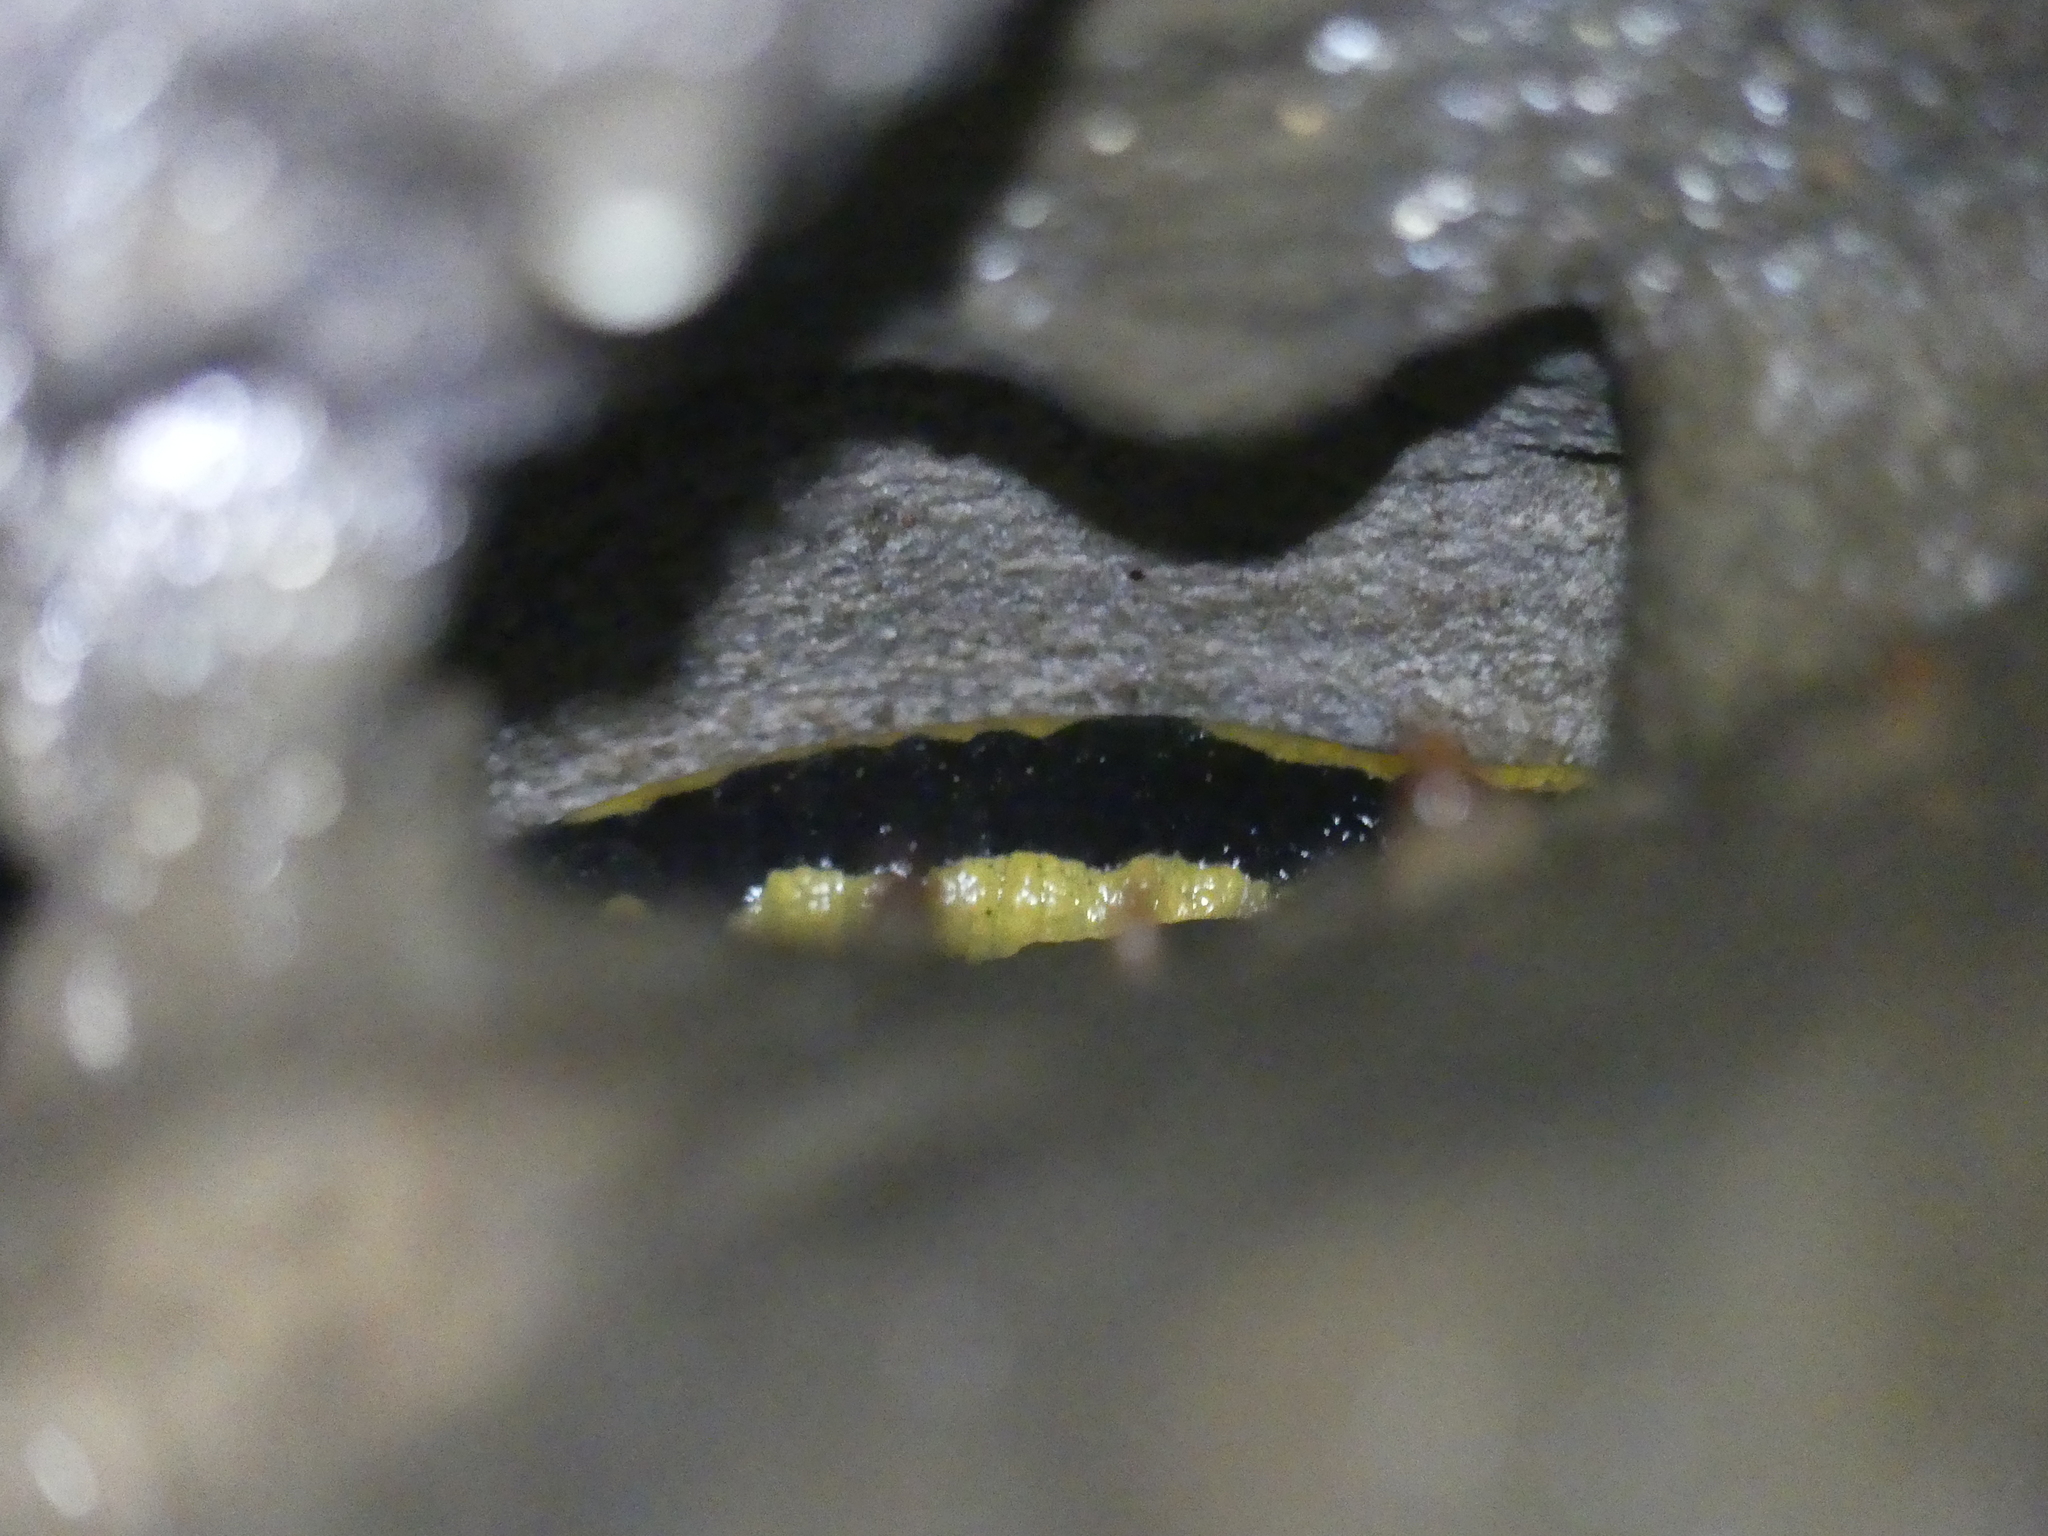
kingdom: Animalia
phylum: Chordata
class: Amphibia
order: Caudata
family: Salamandridae
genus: Salamandra
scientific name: Salamandra salamandra
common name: Fire salamander
